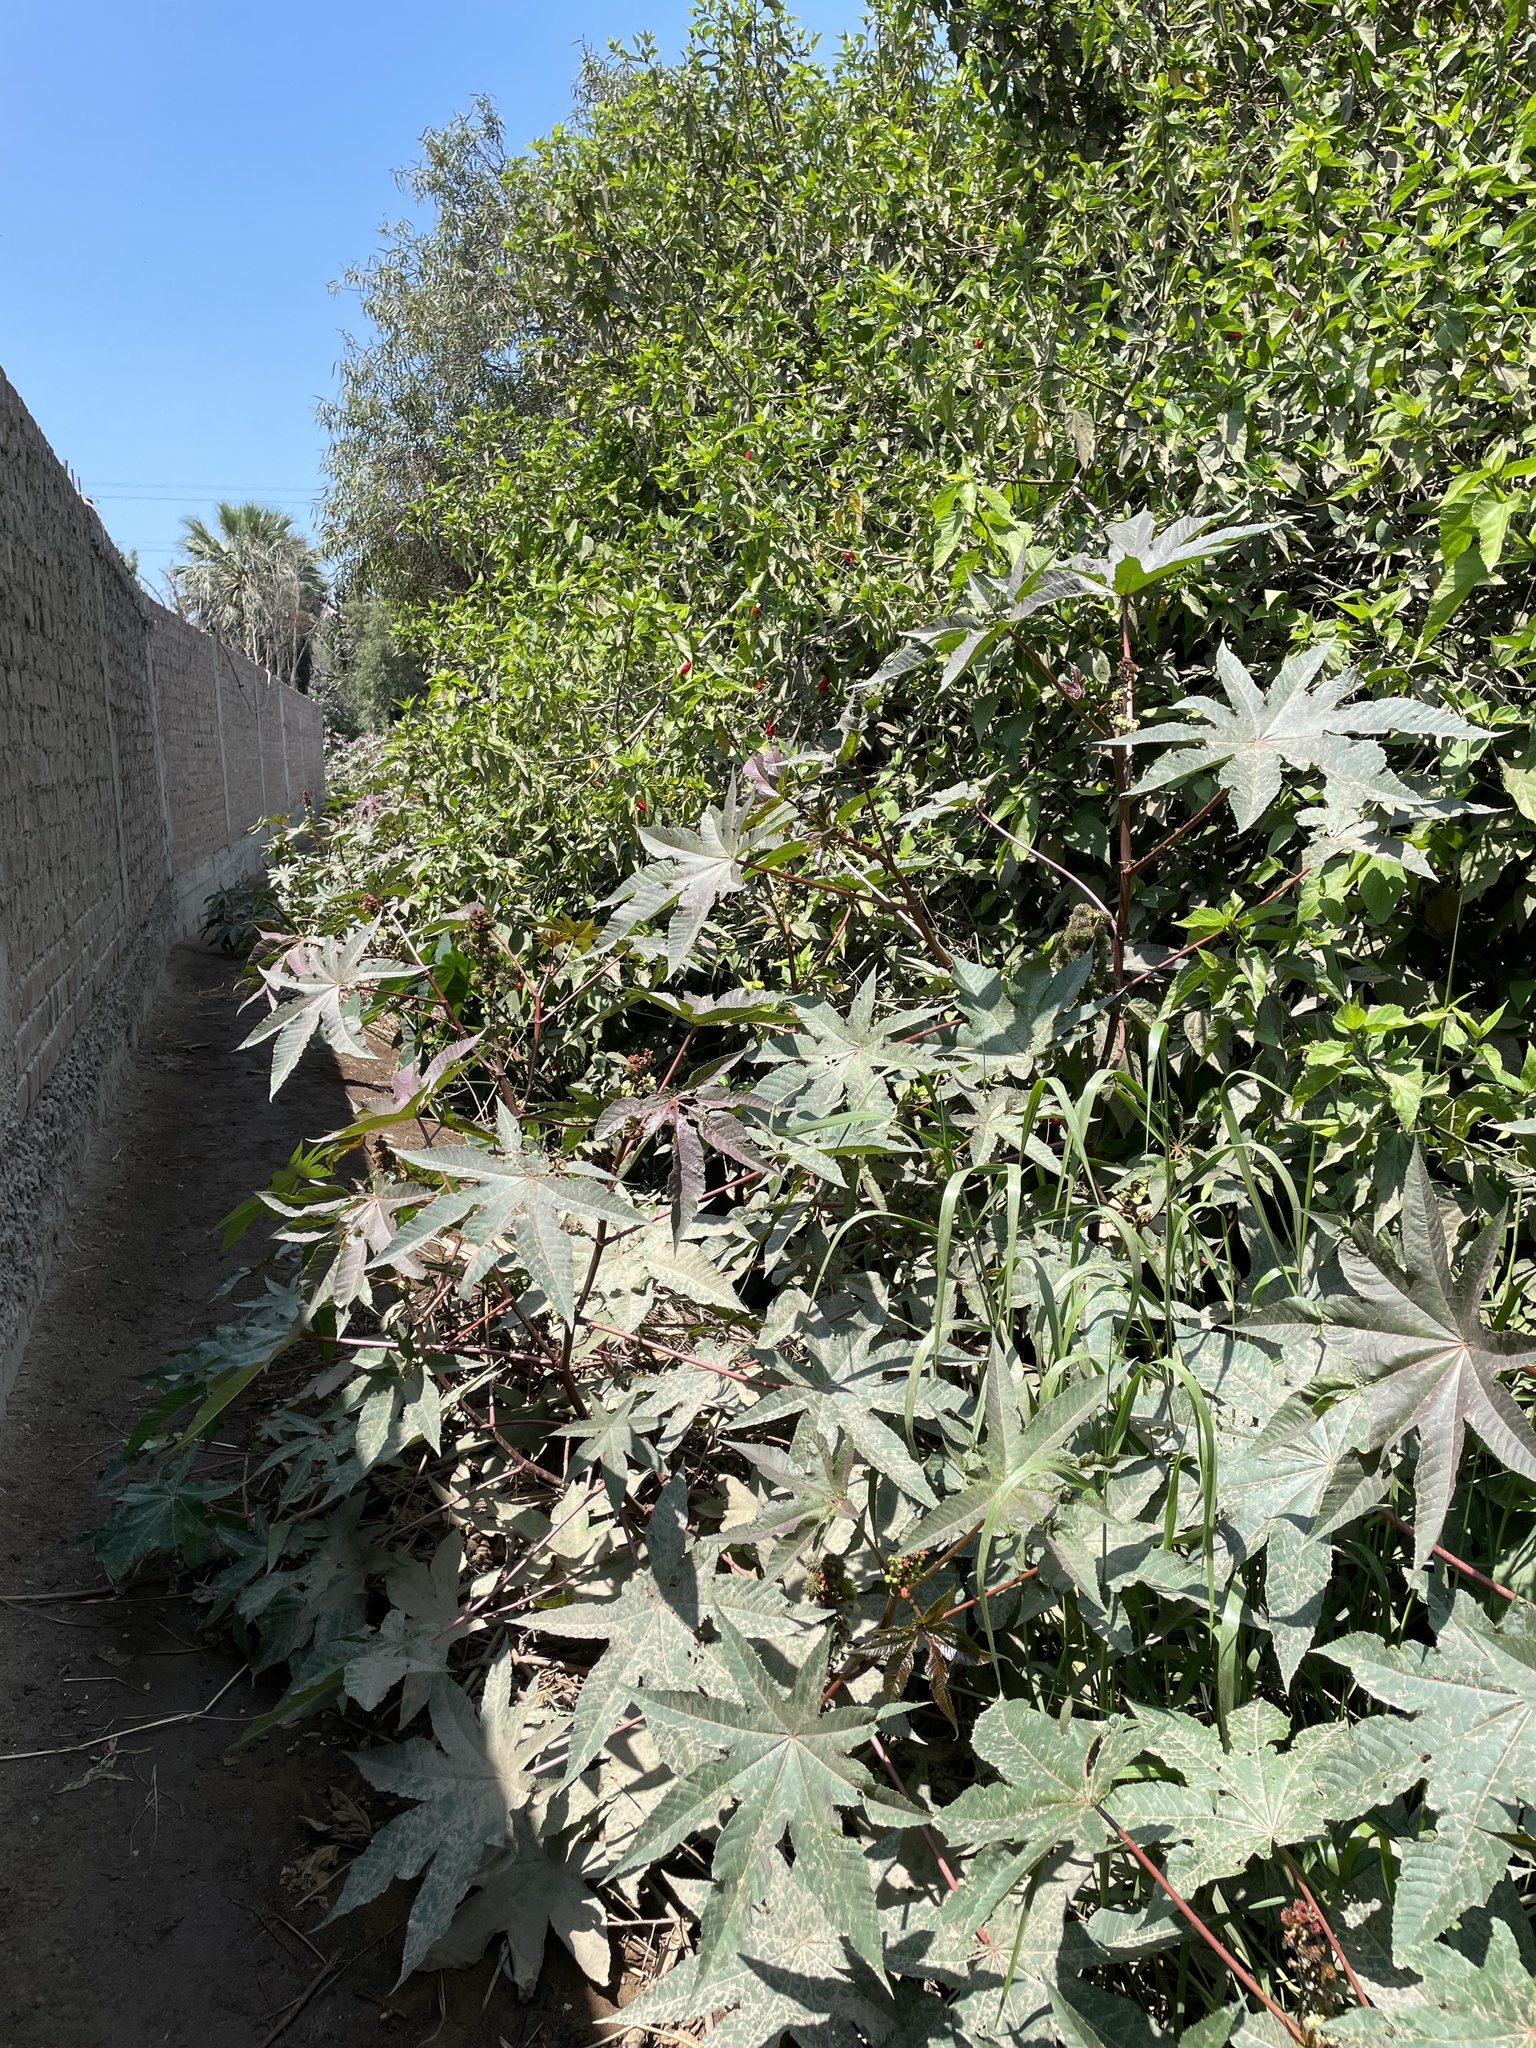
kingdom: Plantae
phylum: Tracheophyta
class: Magnoliopsida
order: Malpighiales
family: Euphorbiaceae
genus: Ricinus
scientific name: Ricinus communis
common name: Castor-oil-plant
